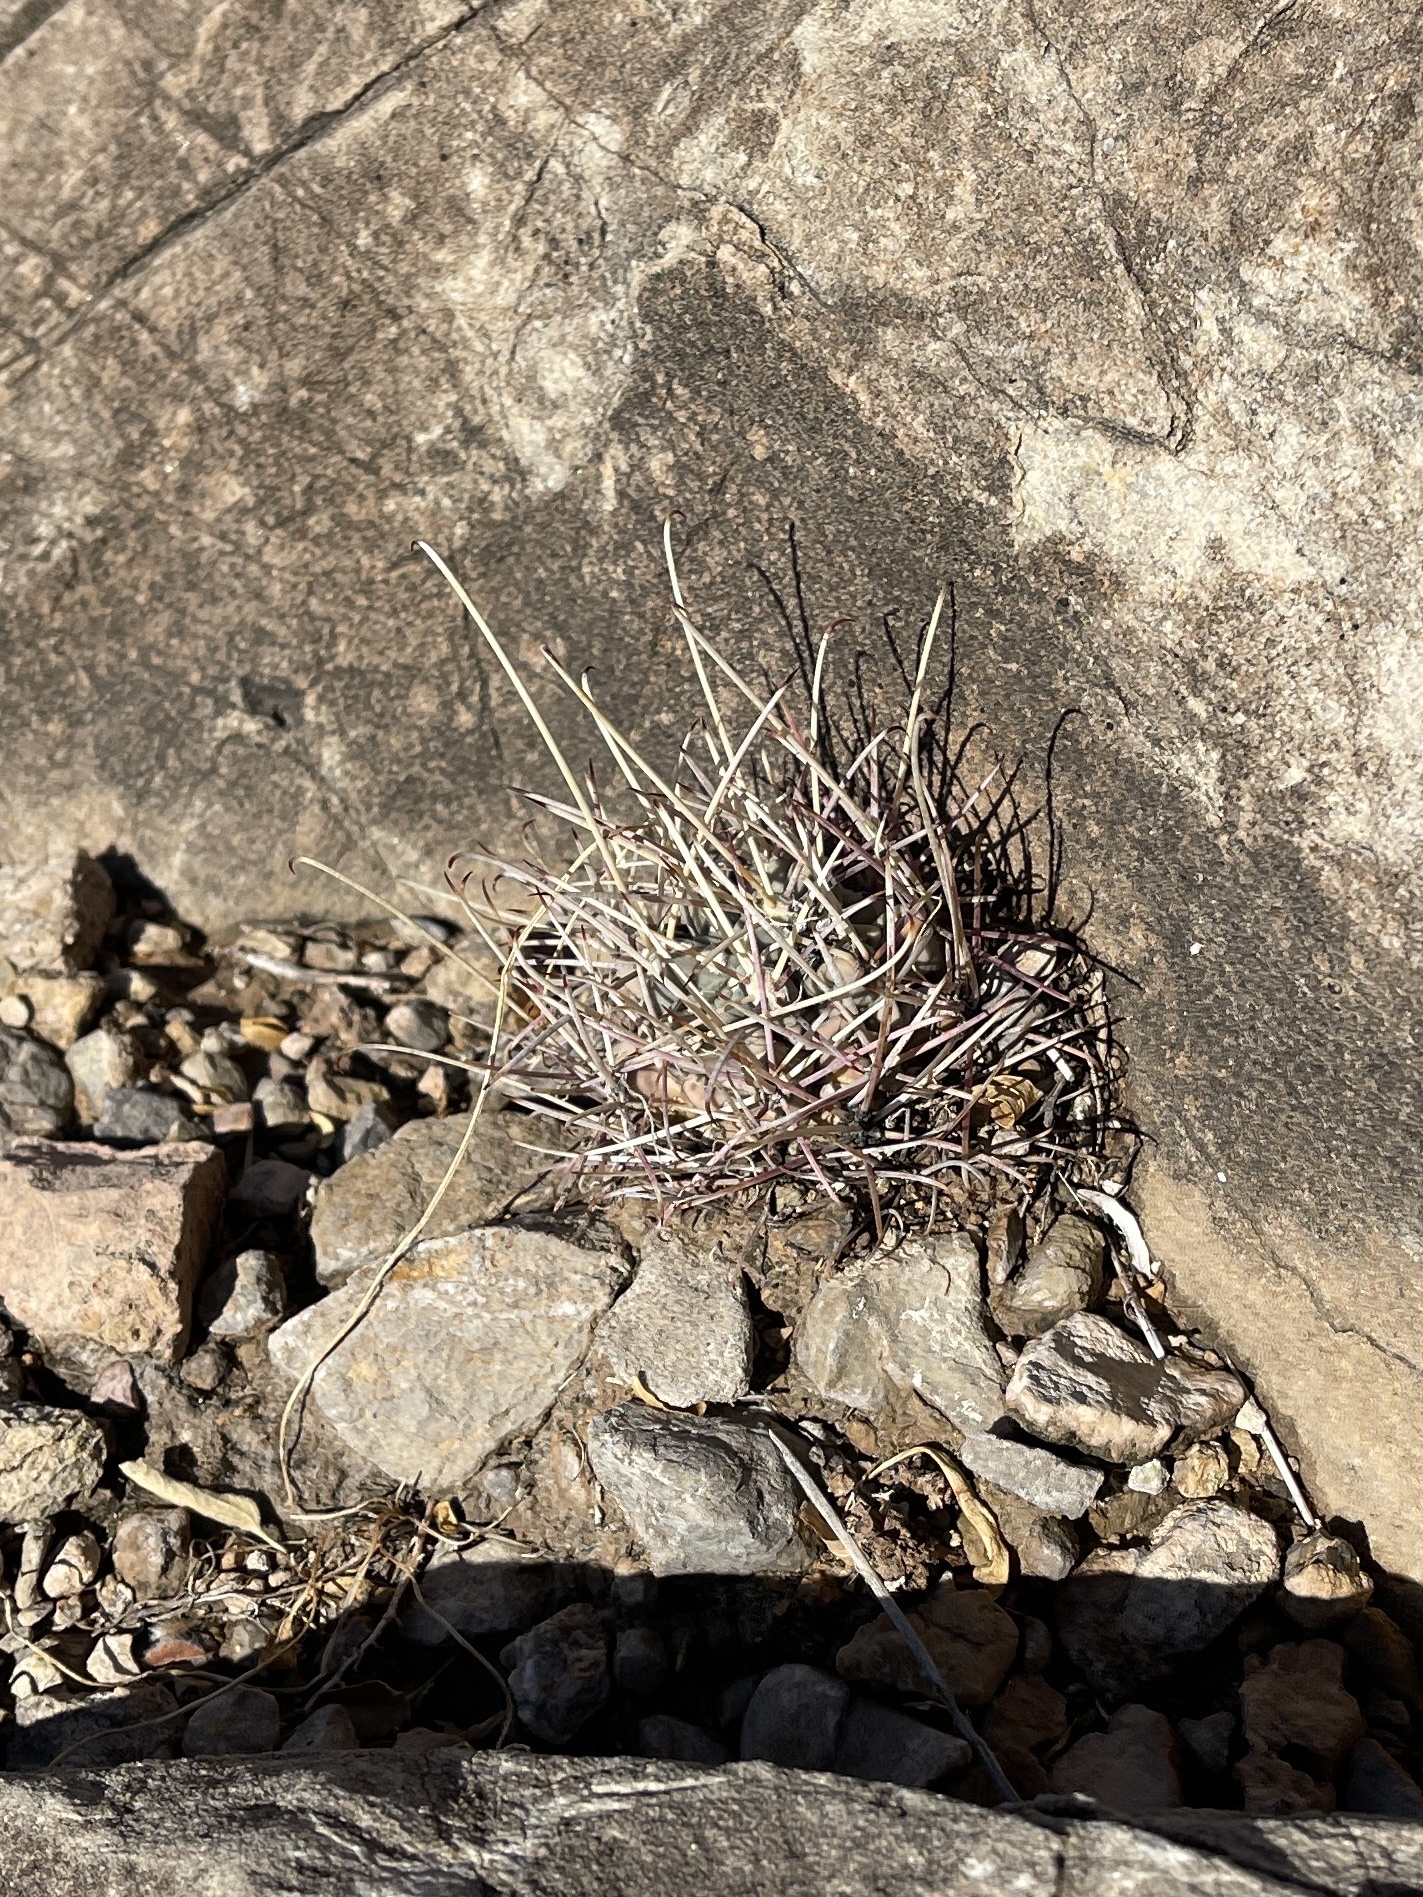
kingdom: Plantae
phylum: Tracheophyta
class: Magnoliopsida
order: Caryophyllales
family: Cactaceae
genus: Ferocactus
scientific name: Ferocactus uncinatus
